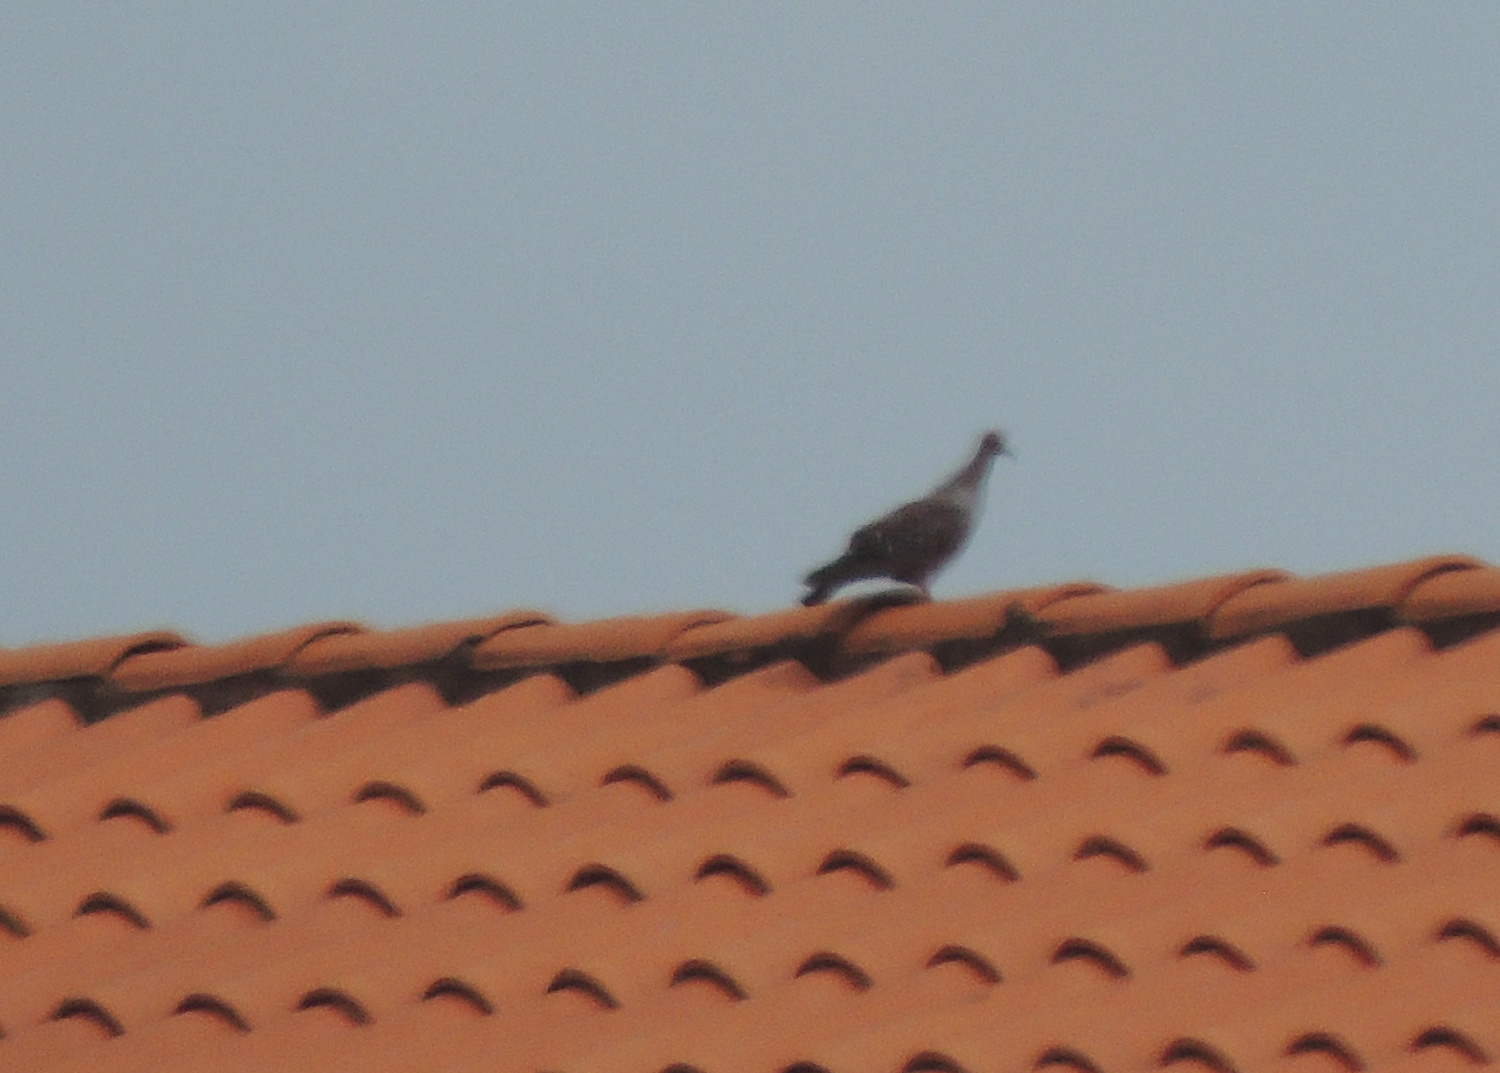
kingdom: Animalia
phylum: Chordata
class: Aves
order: Columbiformes
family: Columbidae
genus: Columba
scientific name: Columba guinea
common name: Speckled pigeon
